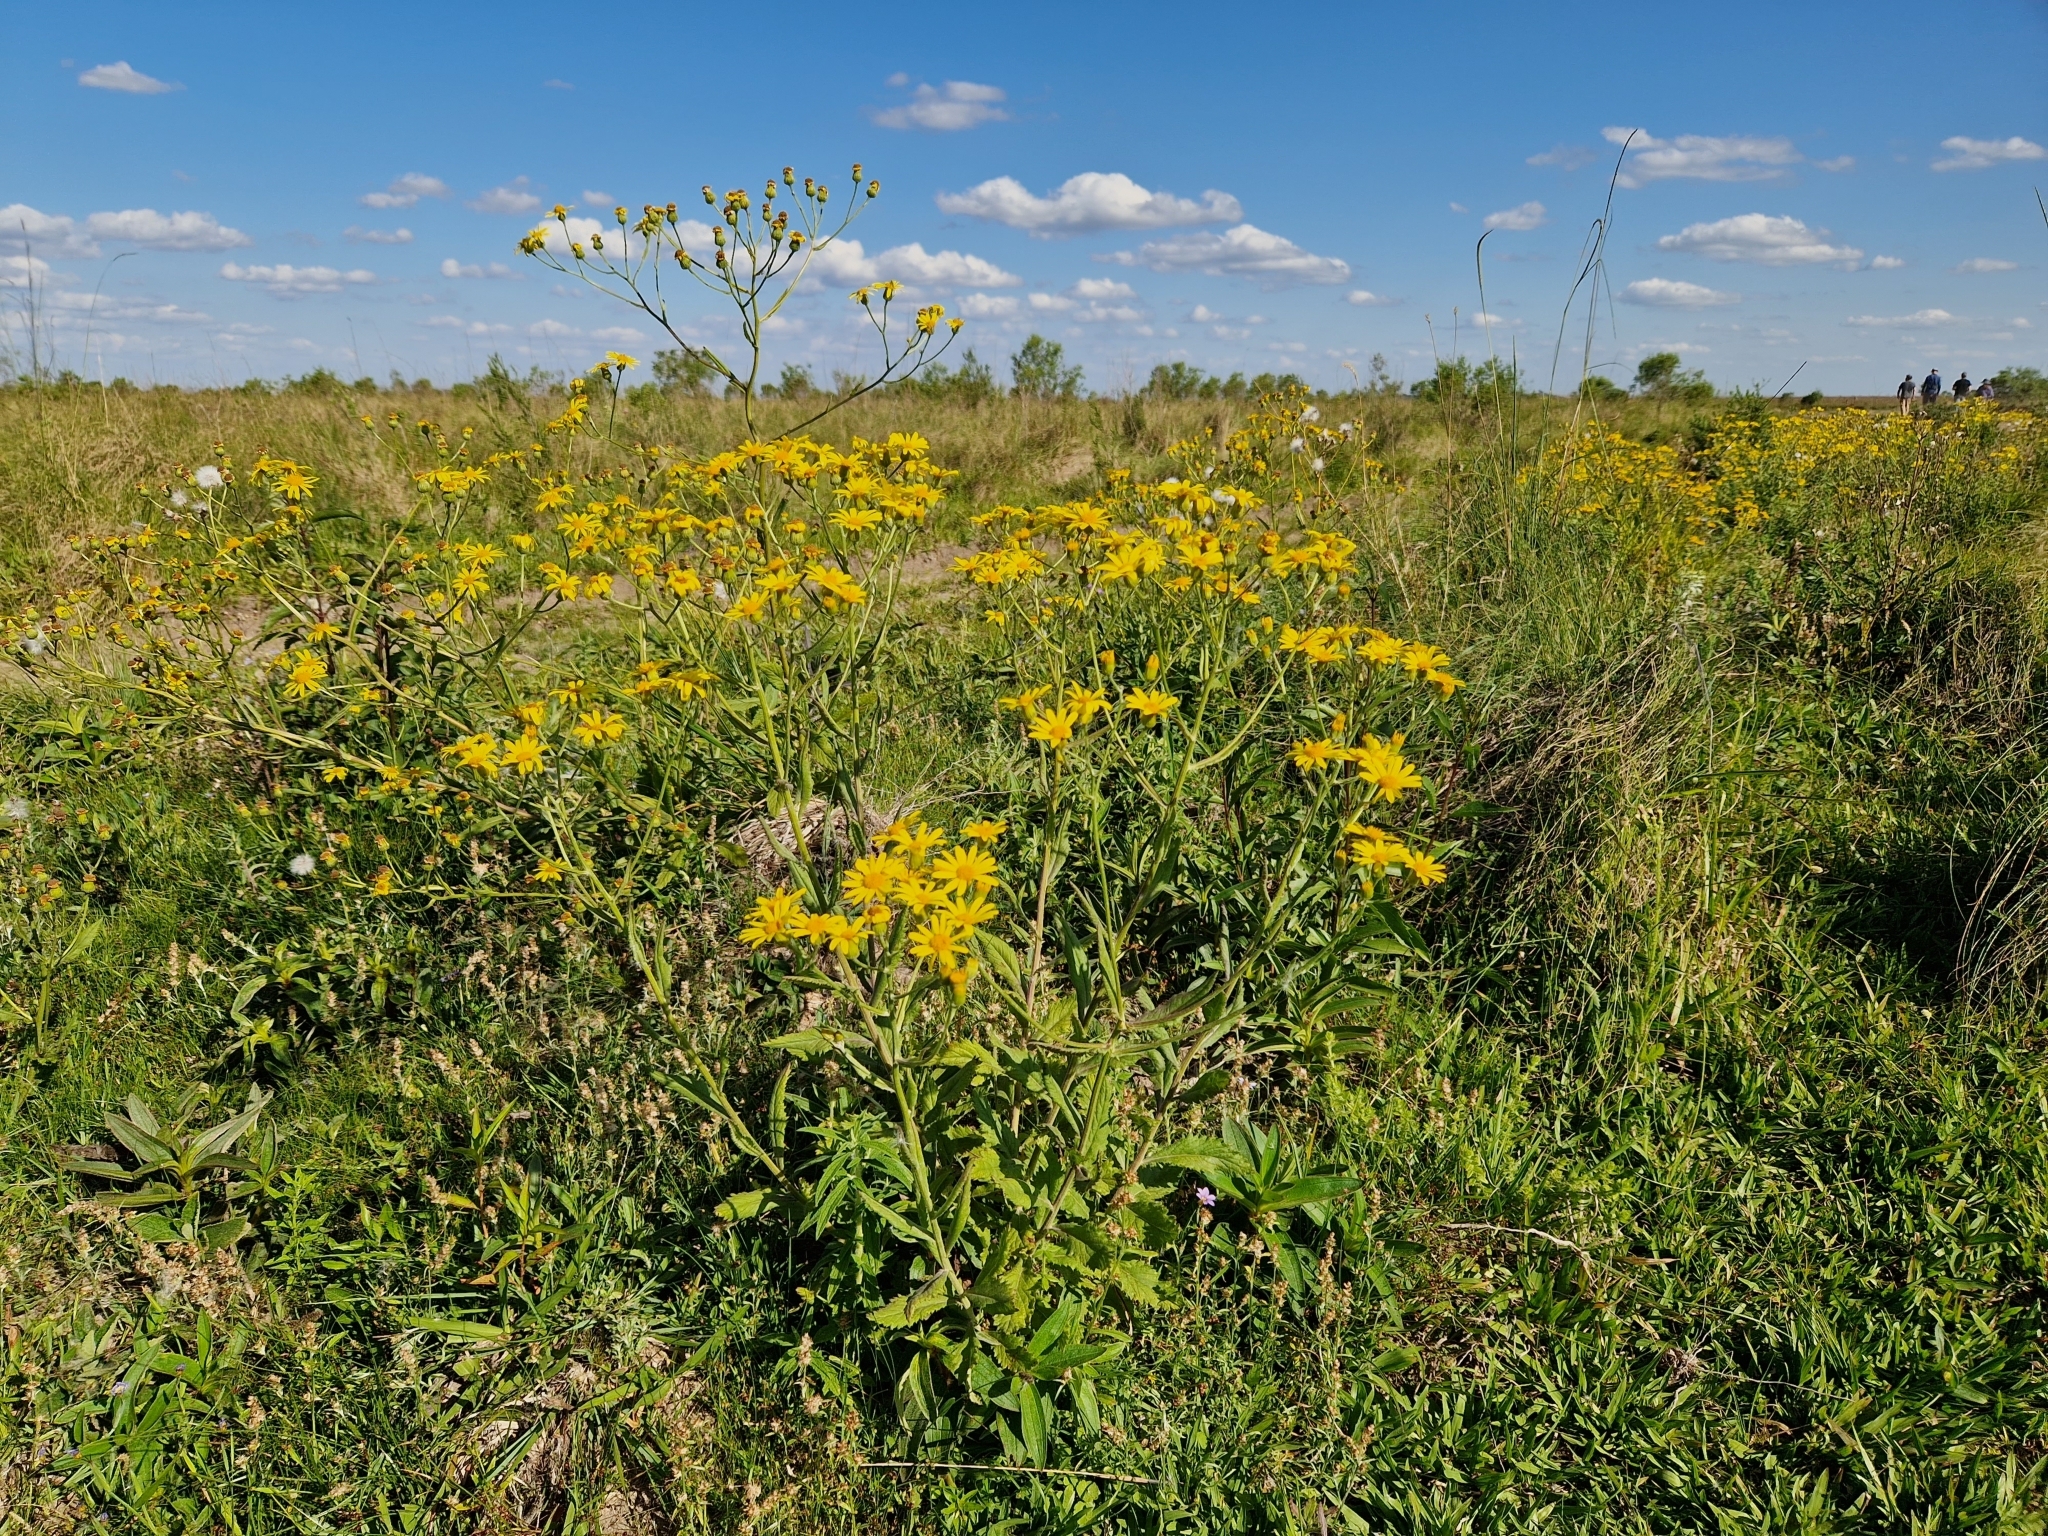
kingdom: Plantae
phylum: Tracheophyta
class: Magnoliopsida
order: Asterales
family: Asteraceae
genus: Senecio
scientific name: Senecio grisebachii
